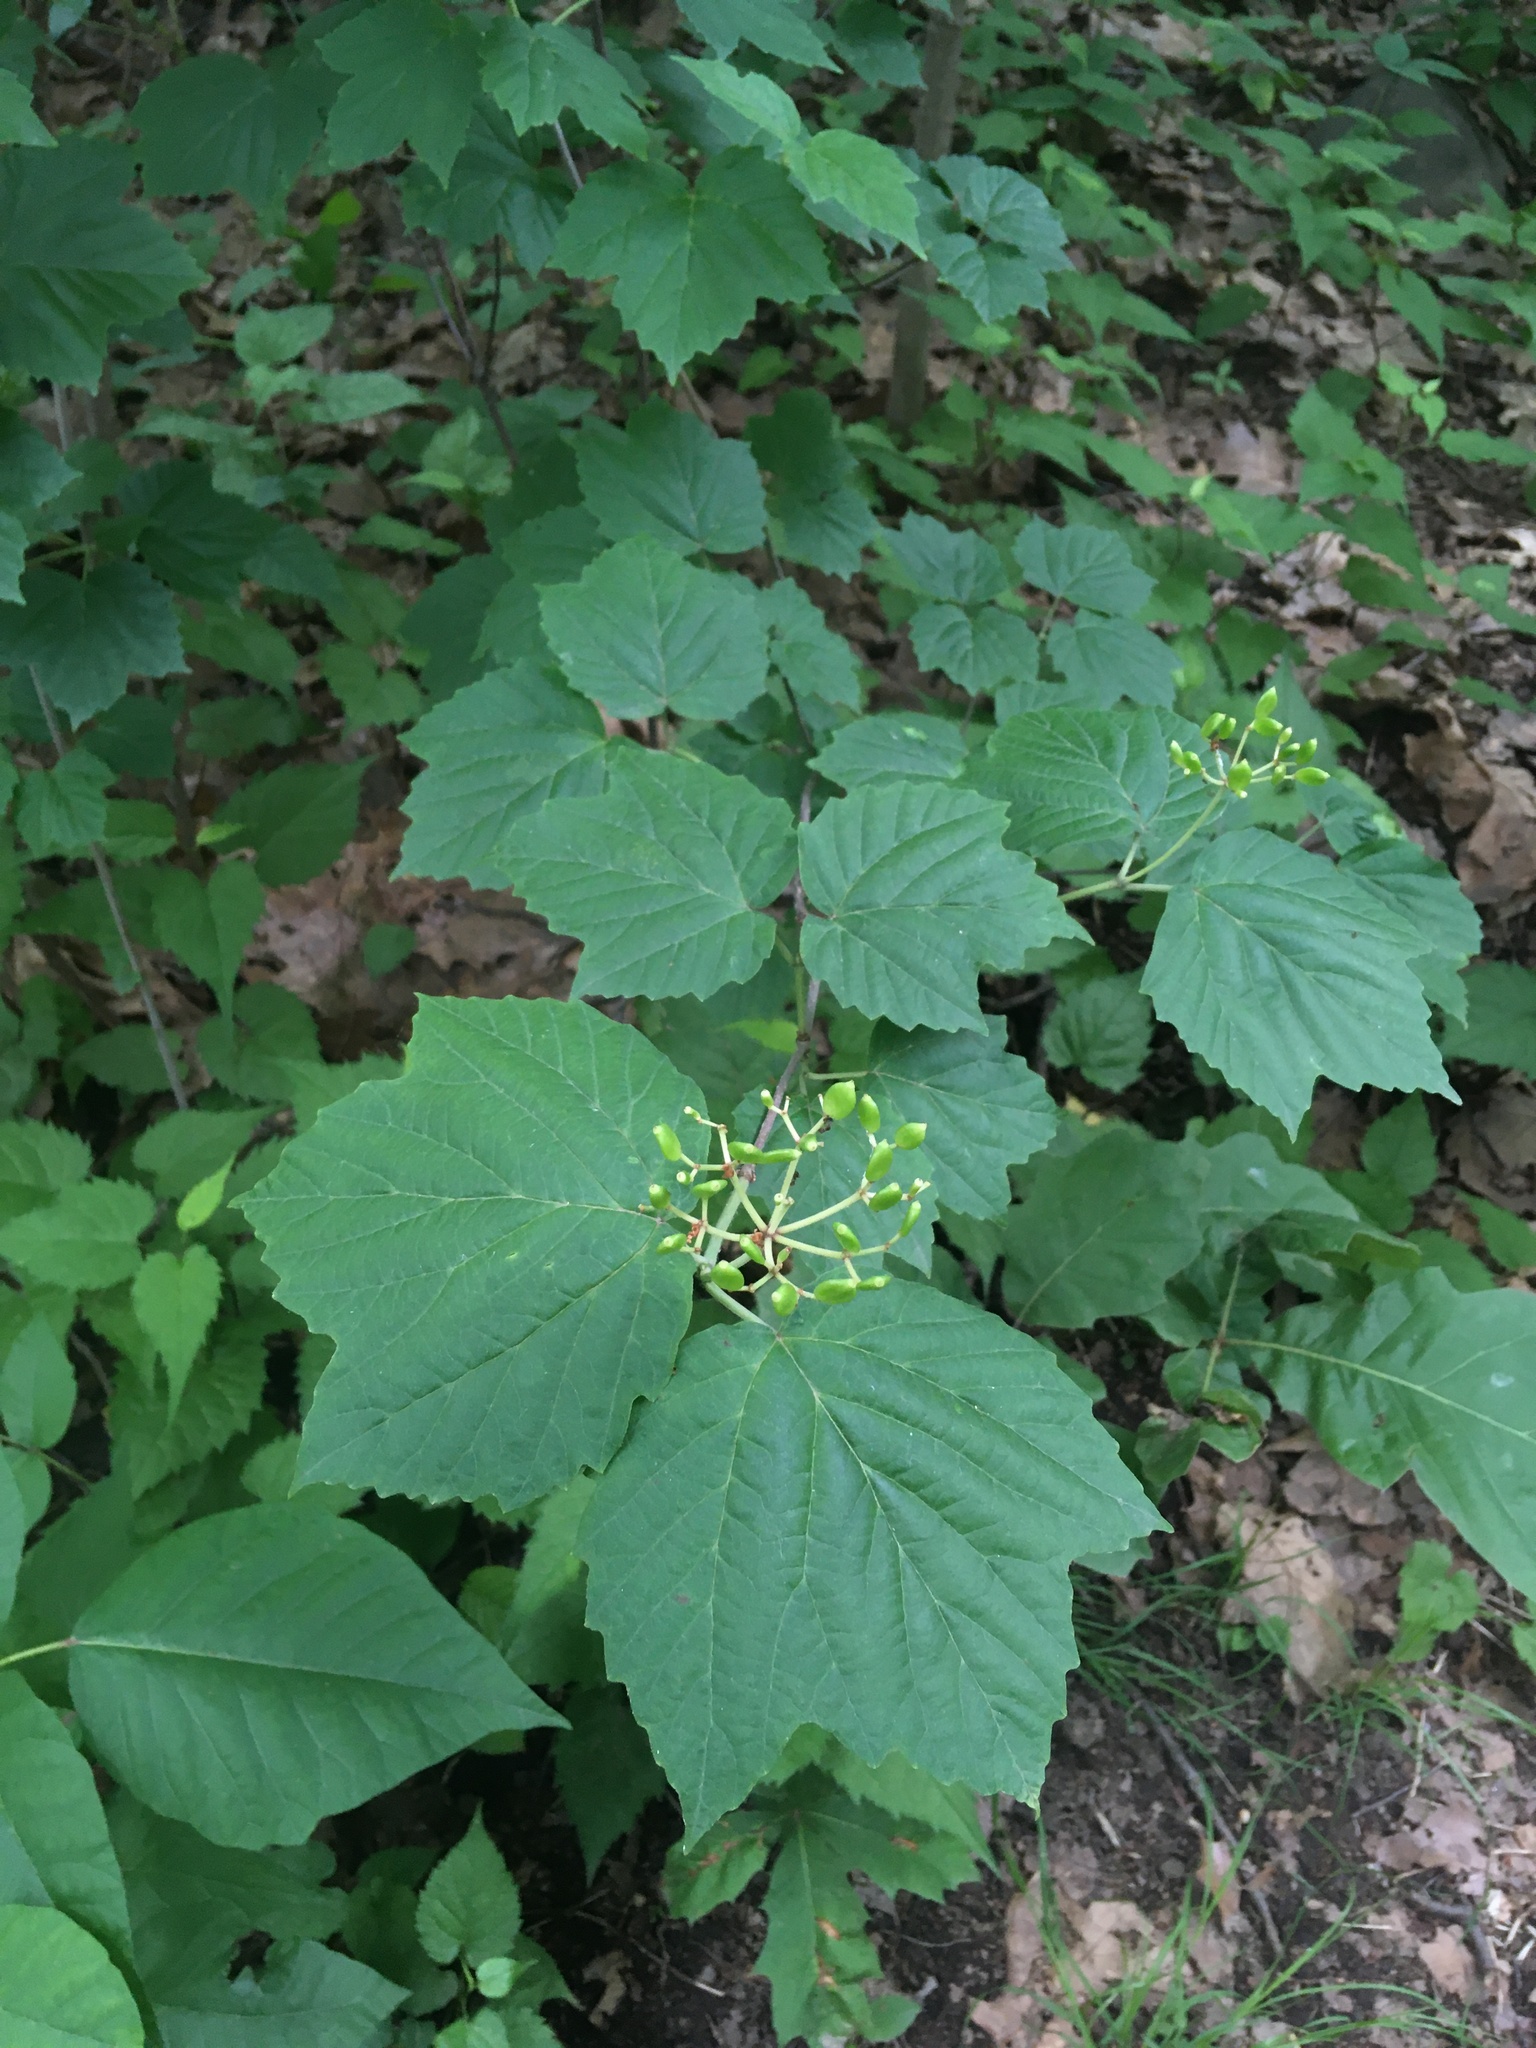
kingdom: Plantae
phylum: Tracheophyta
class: Magnoliopsida
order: Dipsacales
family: Viburnaceae
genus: Viburnum
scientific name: Viburnum acerifolium
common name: Dockmackie
